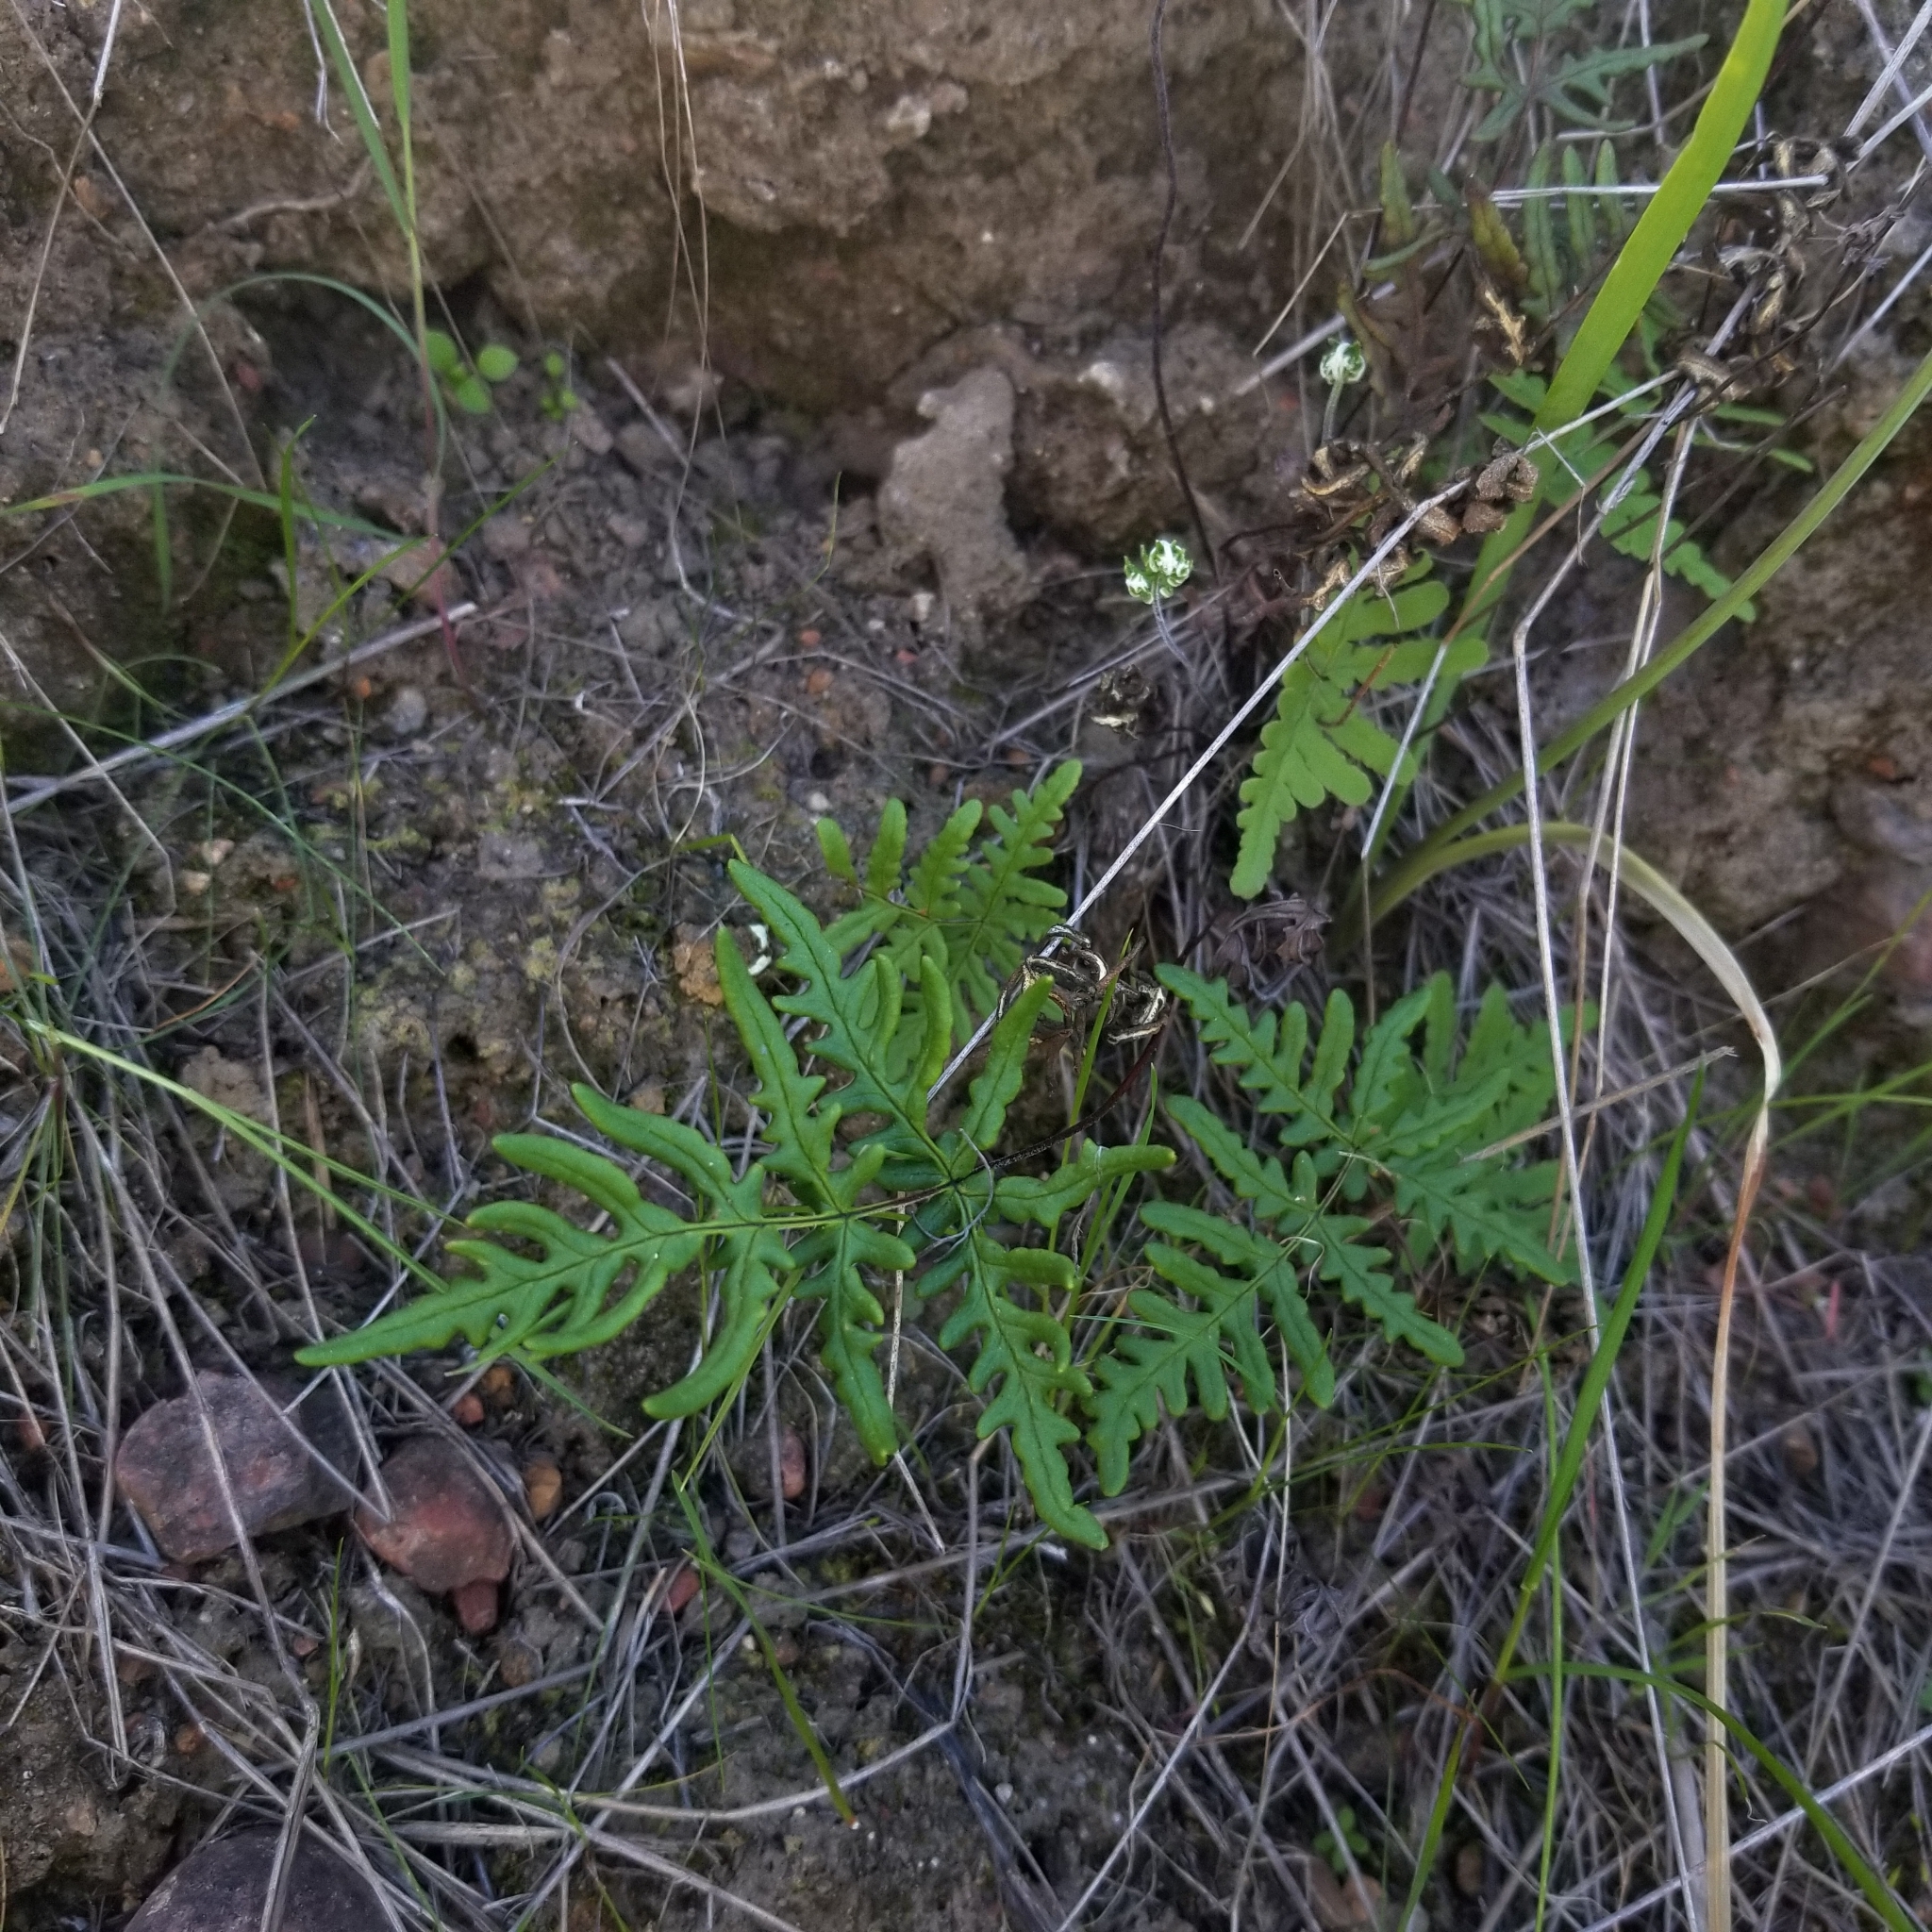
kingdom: Plantae
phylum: Tracheophyta
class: Polypodiopsida
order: Polypodiales
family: Pteridaceae
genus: Pentagramma
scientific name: Pentagramma viscosa
